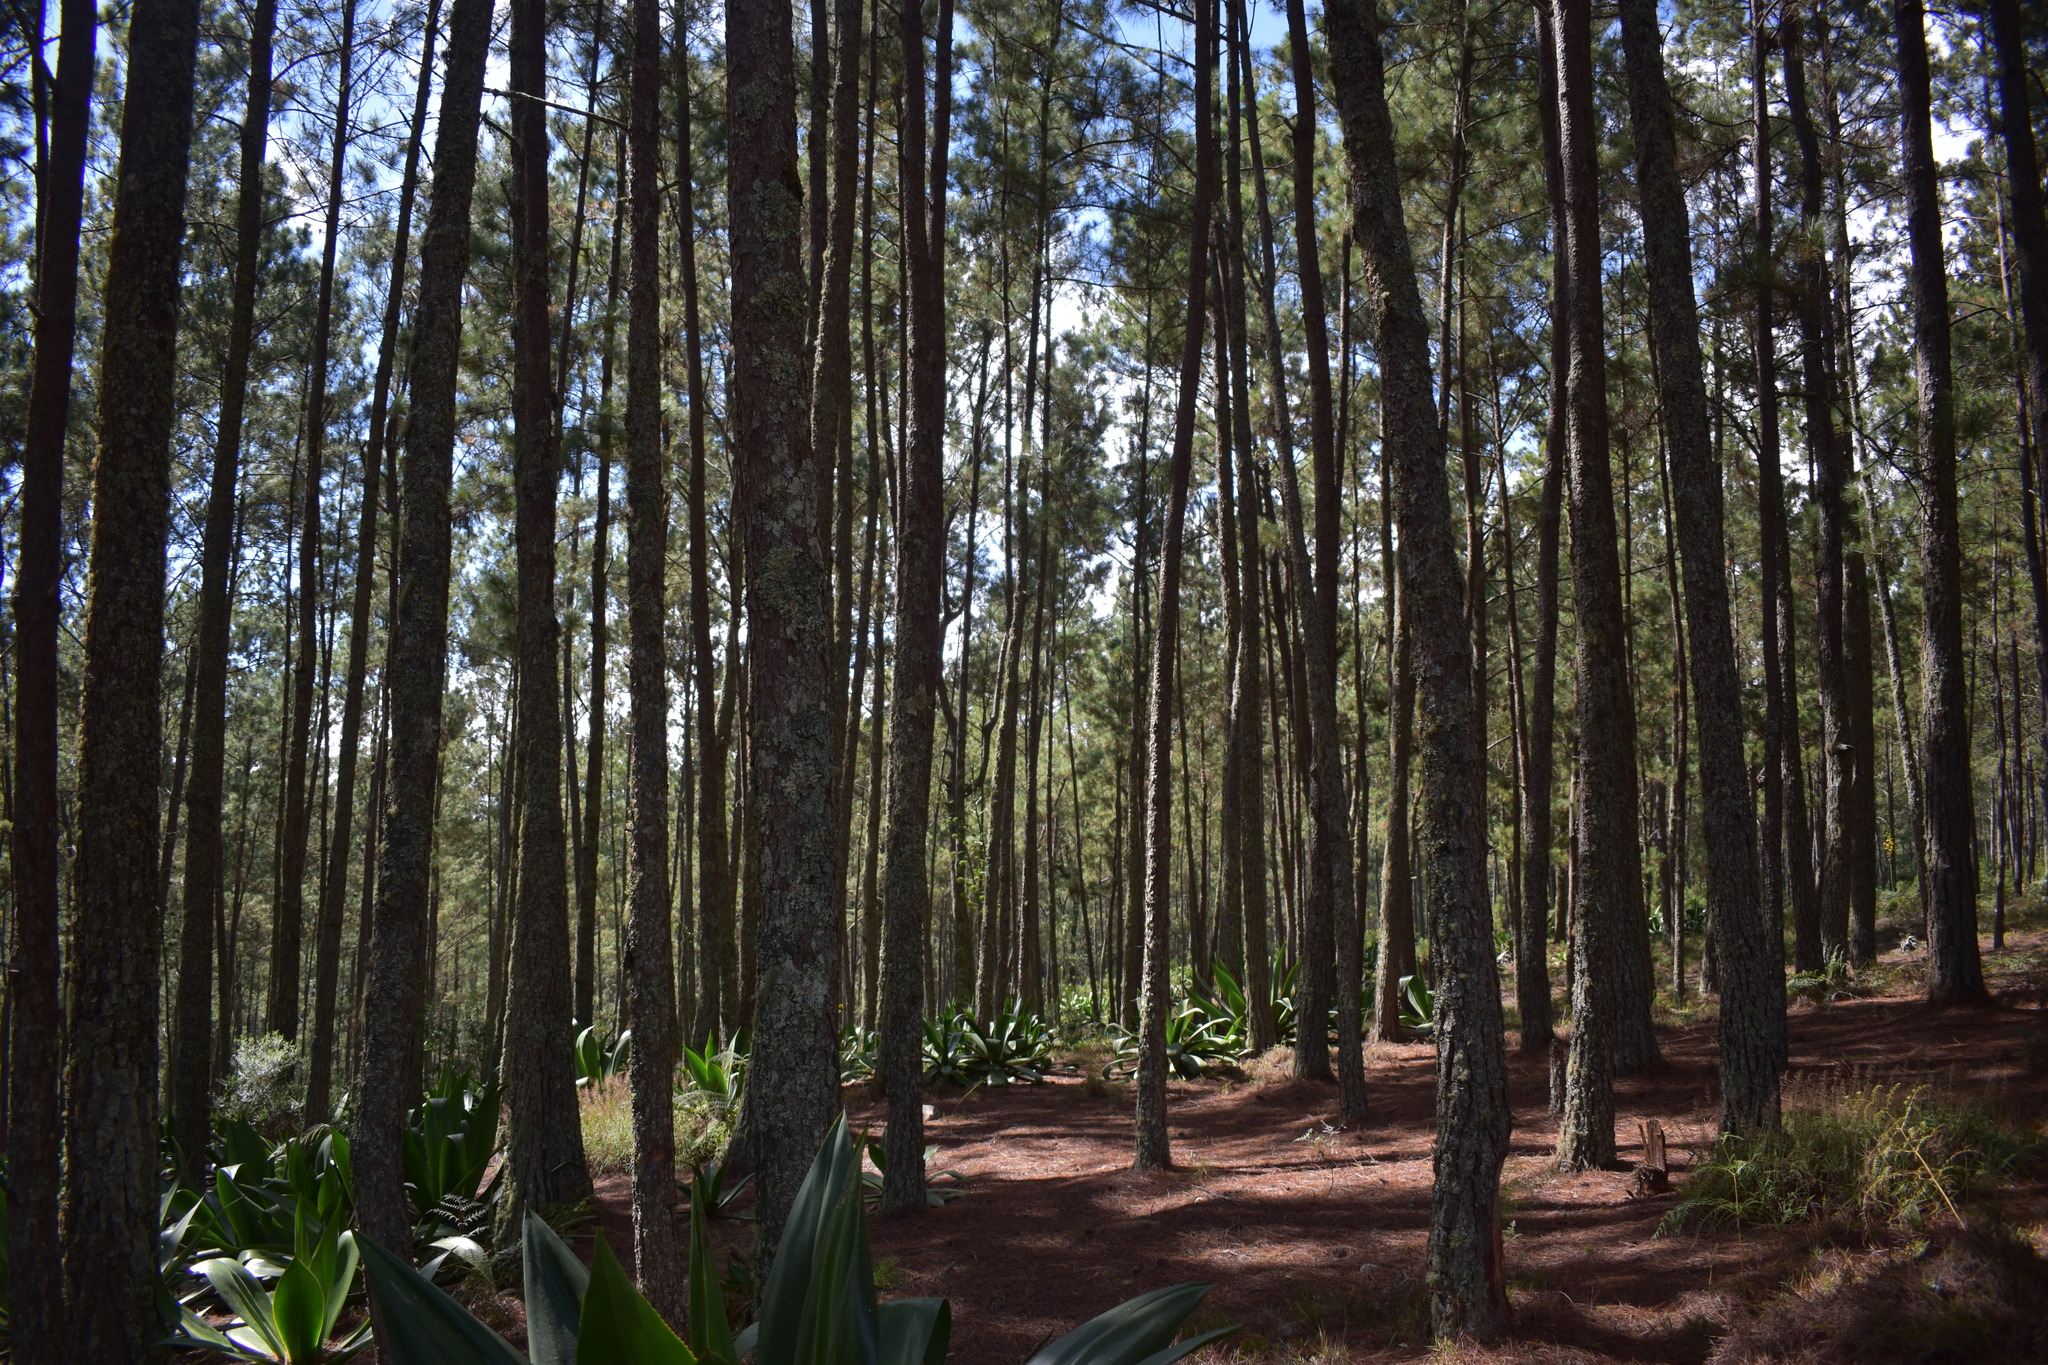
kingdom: Plantae
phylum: Tracheophyta
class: Pinopsida
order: Pinales
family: Pinaceae
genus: Pinus
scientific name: Pinus occidentalis
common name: Hispaniolan pine
